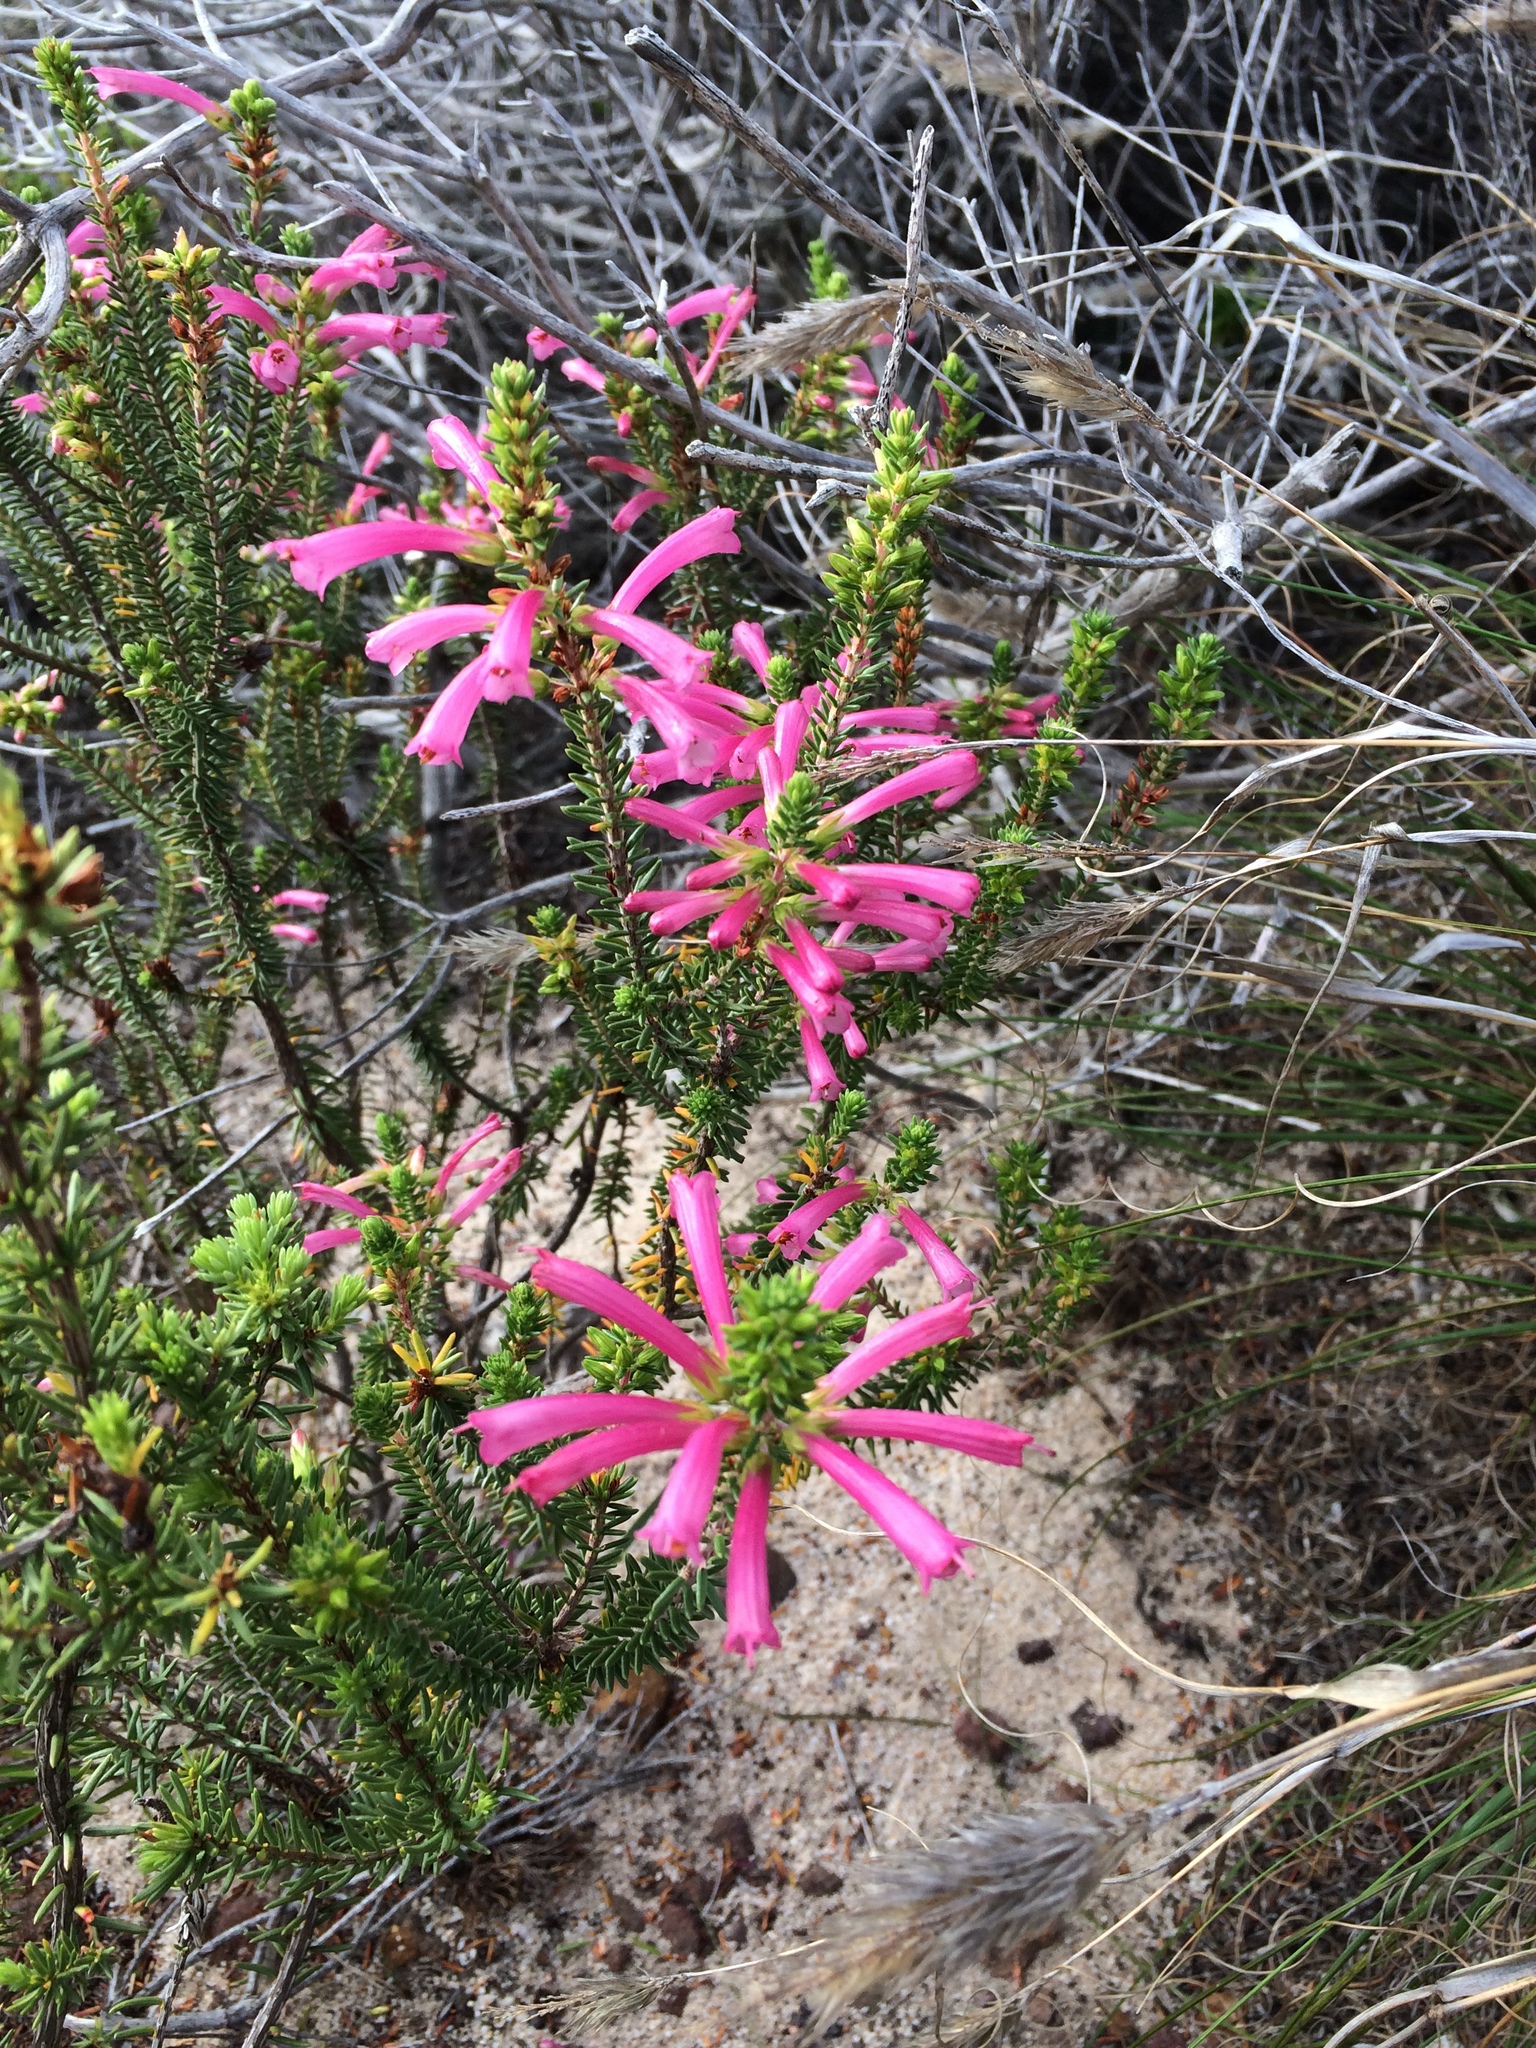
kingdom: Plantae
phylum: Tracheophyta
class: Magnoliopsida
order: Ericales
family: Ericaceae
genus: Erica
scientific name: Erica abietina
